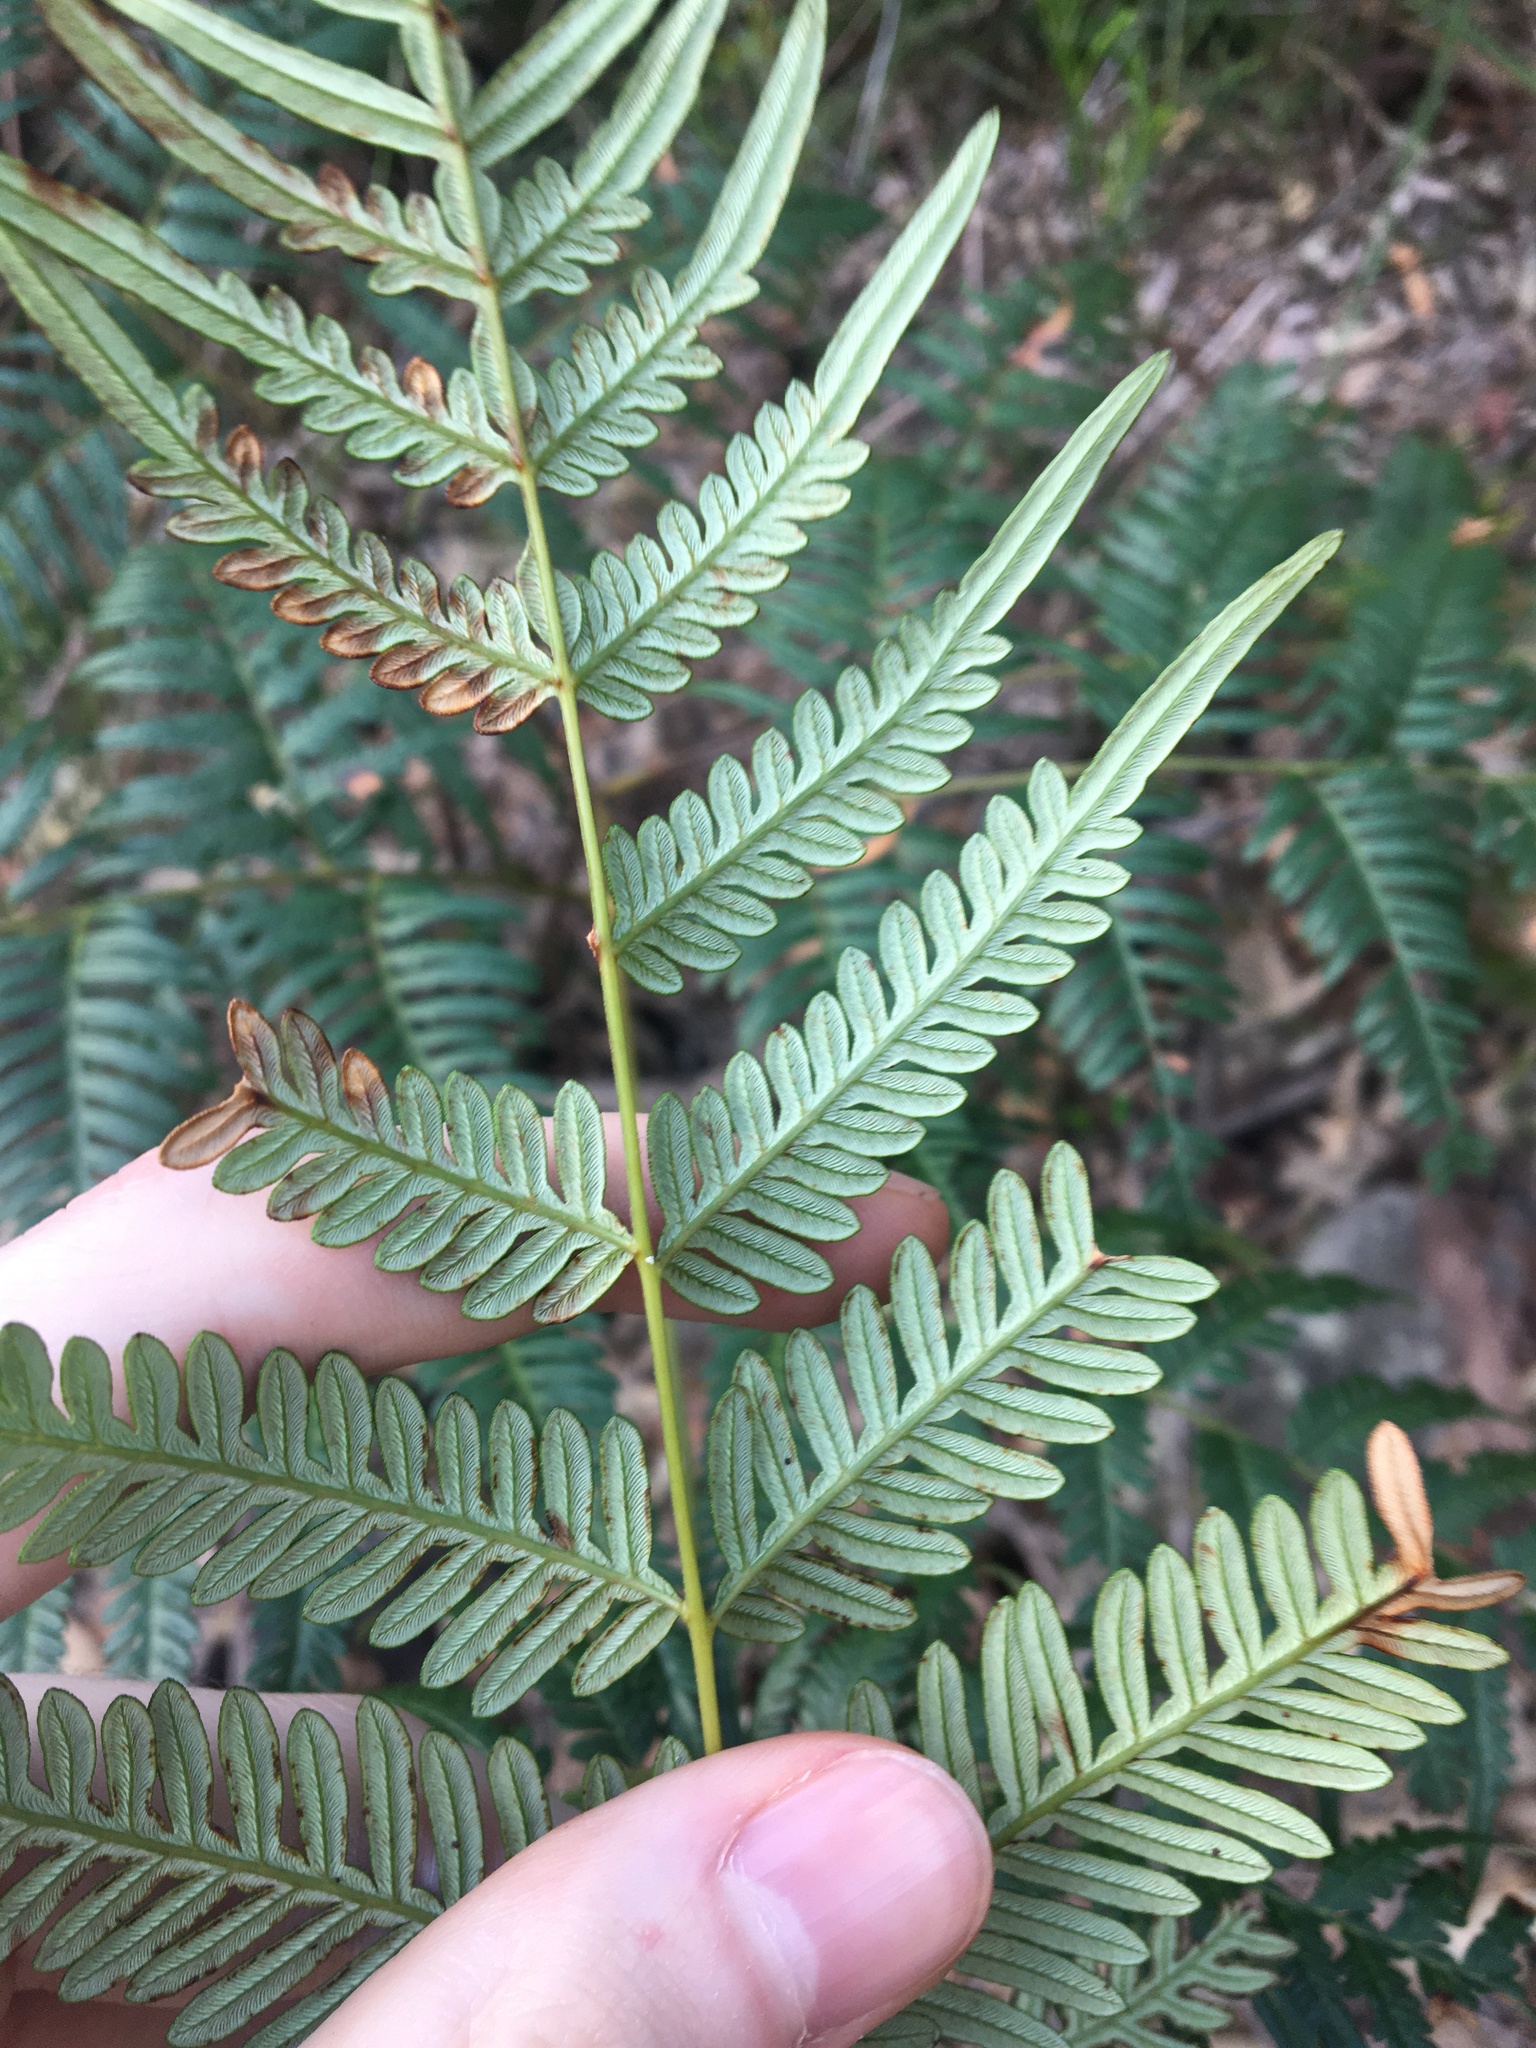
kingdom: Plantae
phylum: Tracheophyta
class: Polypodiopsida
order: Polypodiales
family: Dennstaedtiaceae
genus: Pteridium
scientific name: Pteridium esculentum
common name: Bracken fern
